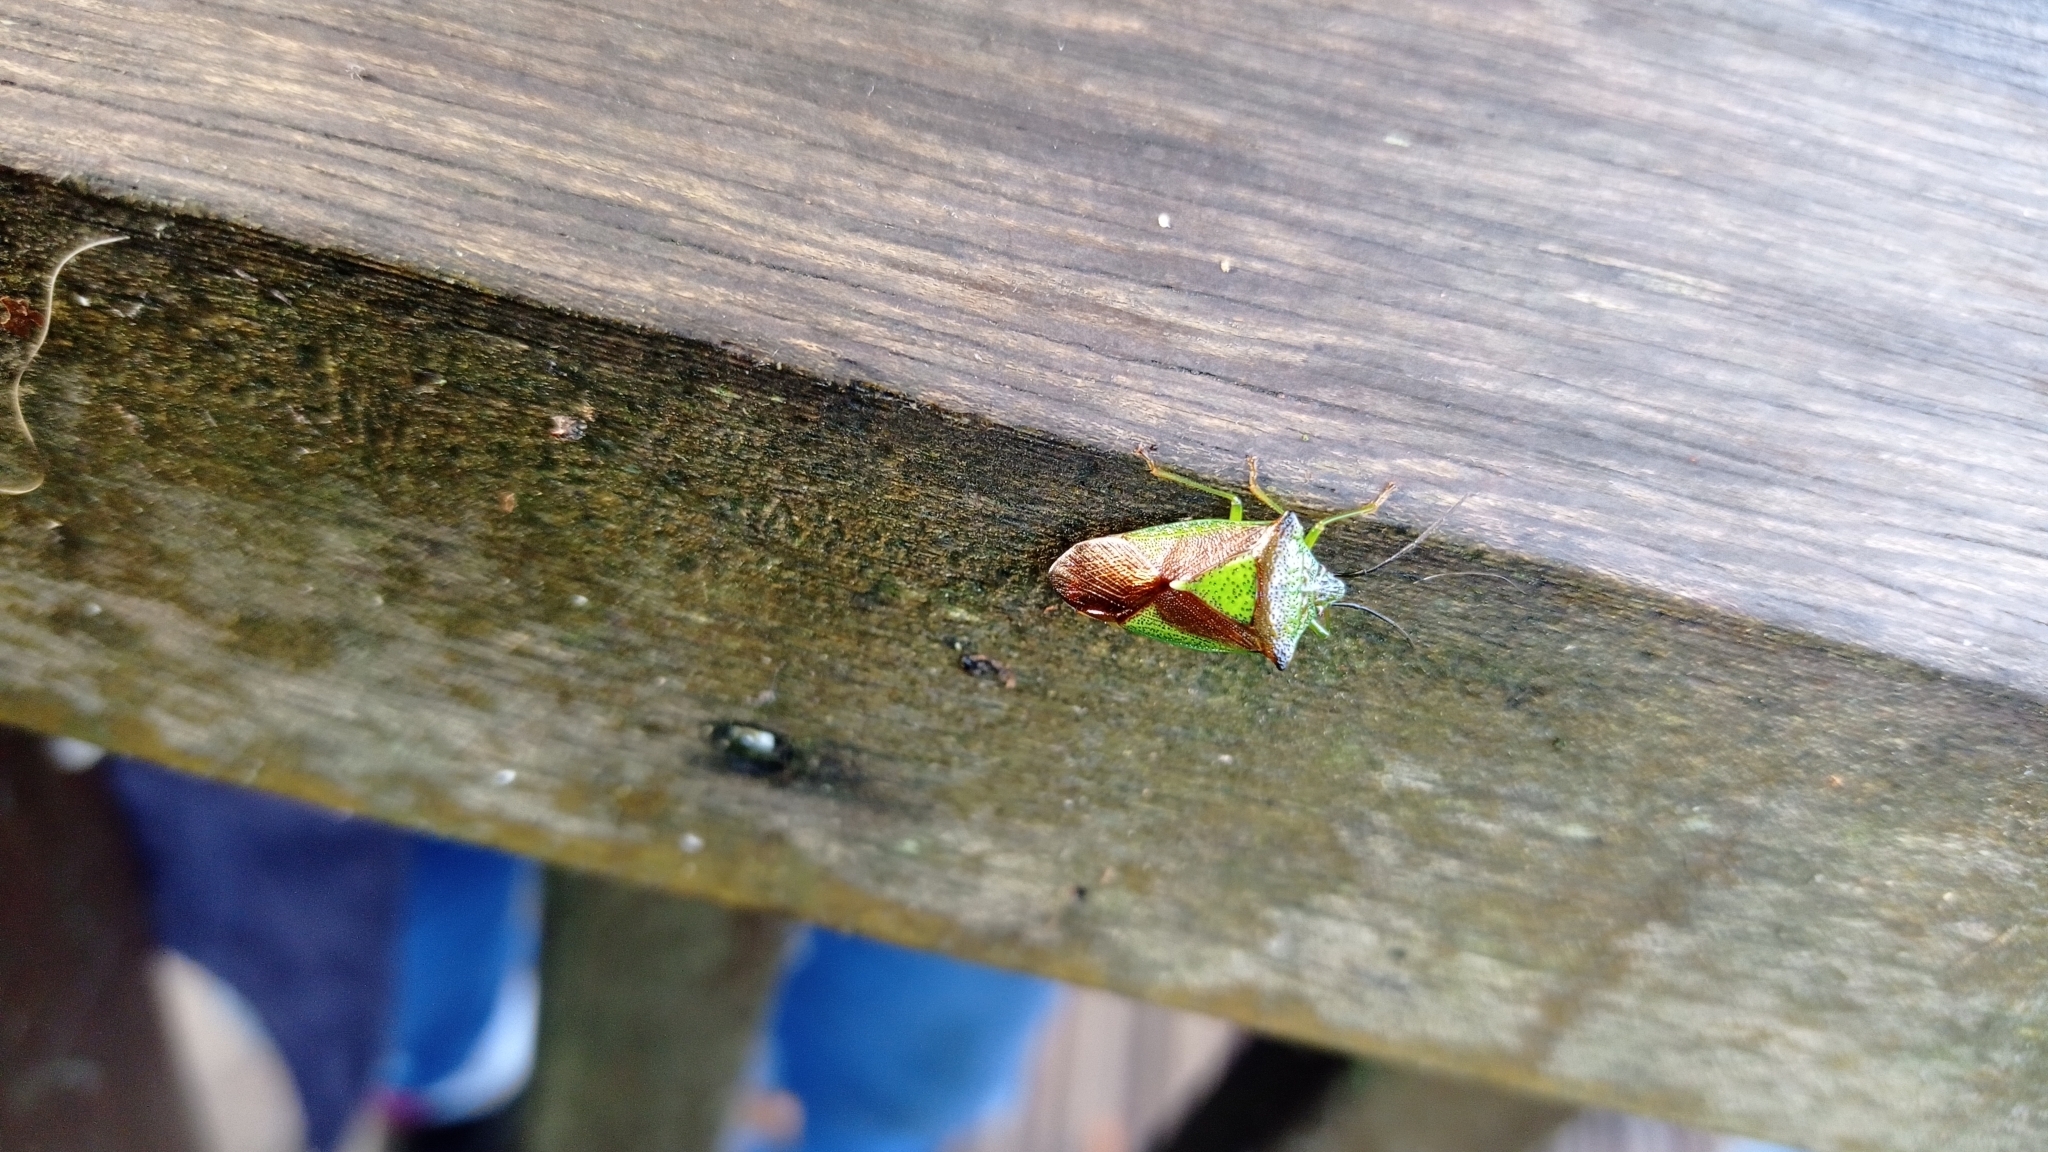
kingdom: Animalia
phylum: Arthropoda
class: Insecta
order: Hemiptera
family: Acanthosomatidae
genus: Acanthosoma
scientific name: Acanthosoma haemorrhoidale
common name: Hawthorn shieldbug
